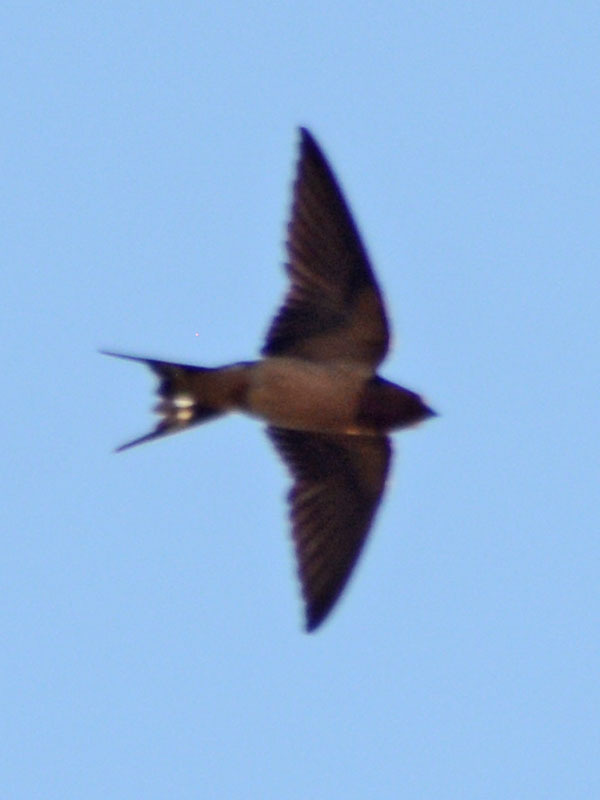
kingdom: Animalia
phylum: Chordata
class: Aves
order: Passeriformes
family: Hirundinidae
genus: Hirundo
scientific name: Hirundo rustica
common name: Barn swallow
